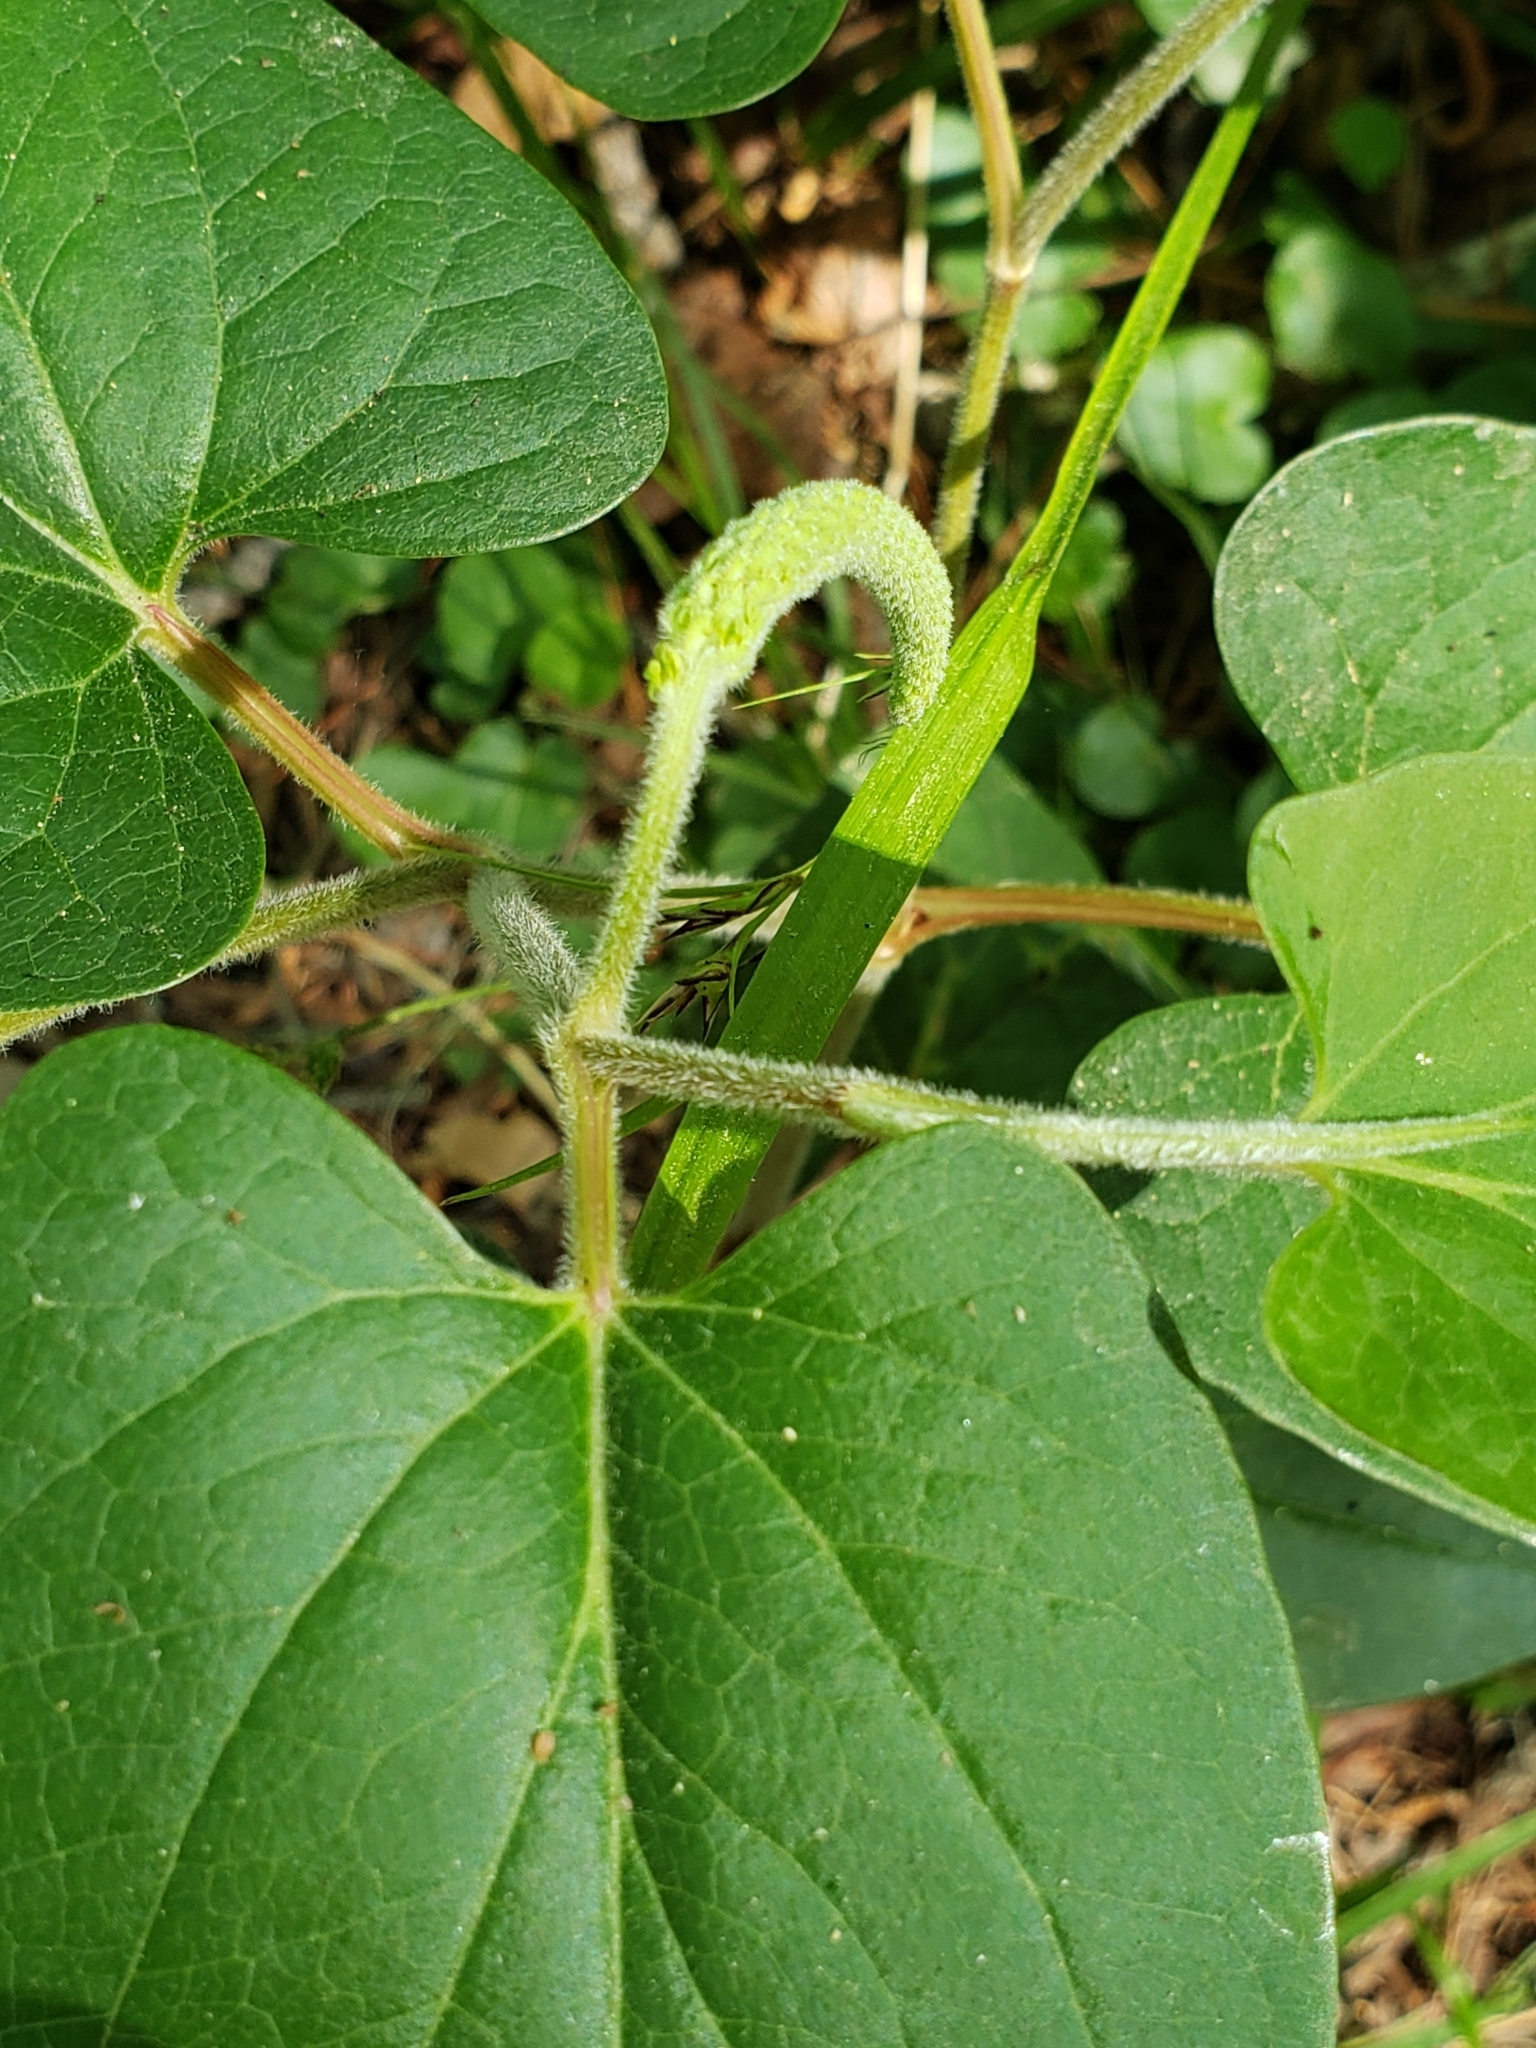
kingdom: Plantae
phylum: Tracheophyta
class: Magnoliopsida
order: Piperales
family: Saururaceae
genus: Saururus
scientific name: Saururus cernuus
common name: Lizard's-tail
